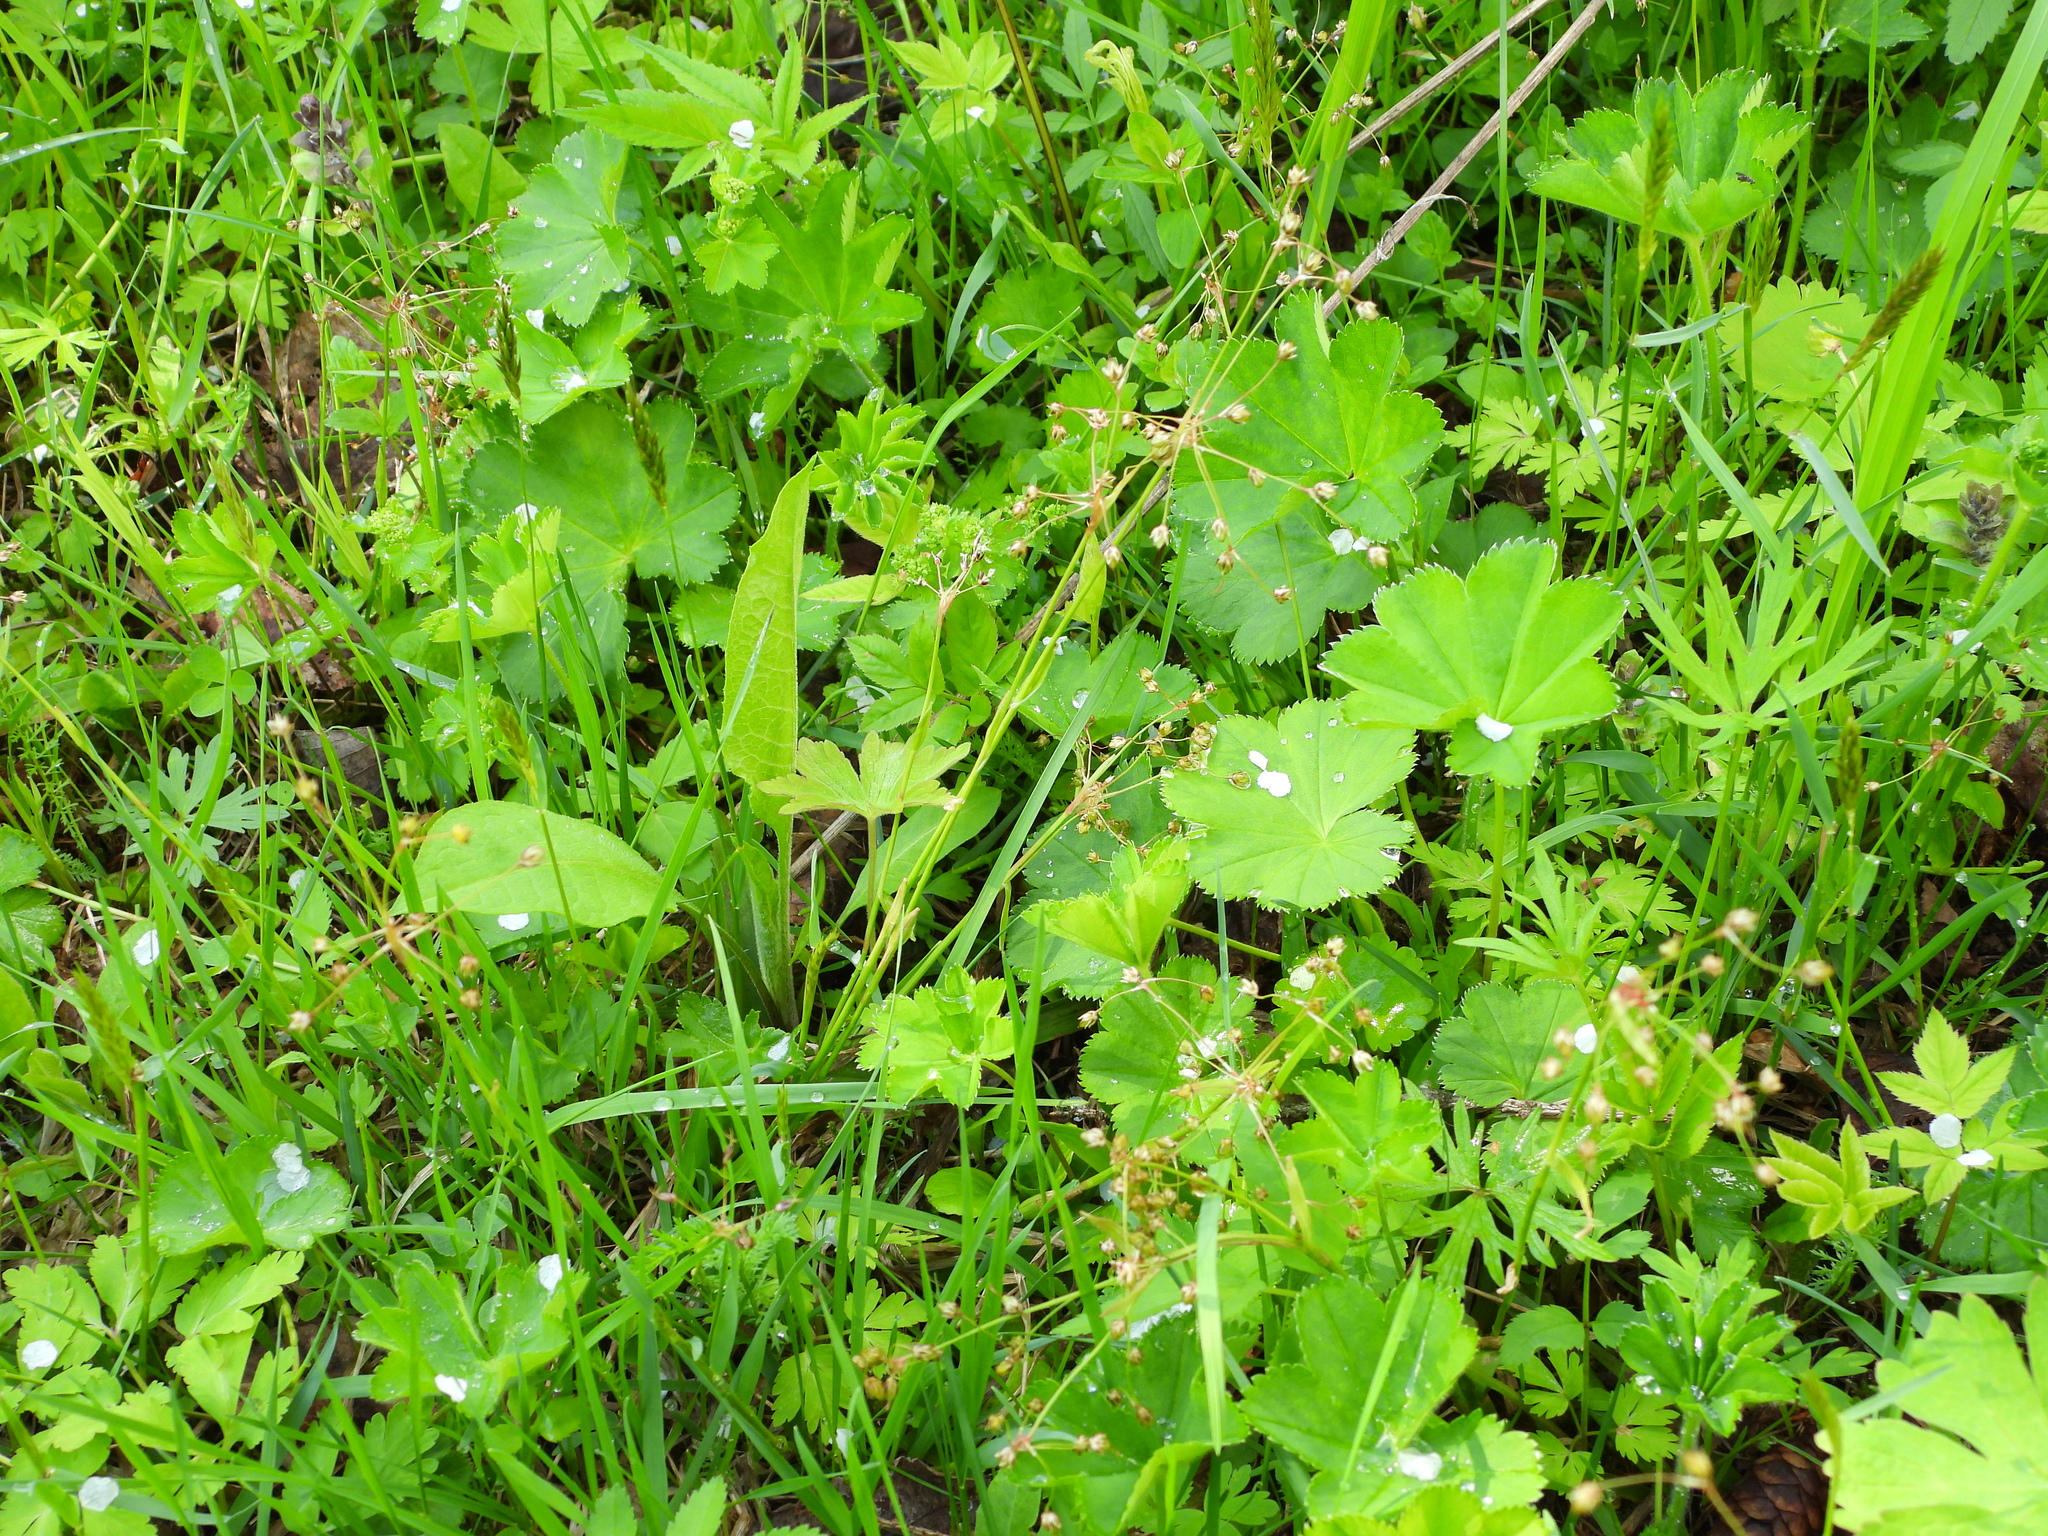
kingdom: Plantae
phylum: Tracheophyta
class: Liliopsida
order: Poales
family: Juncaceae
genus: Luzula
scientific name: Luzula pilosa
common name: Hairy wood-rush
